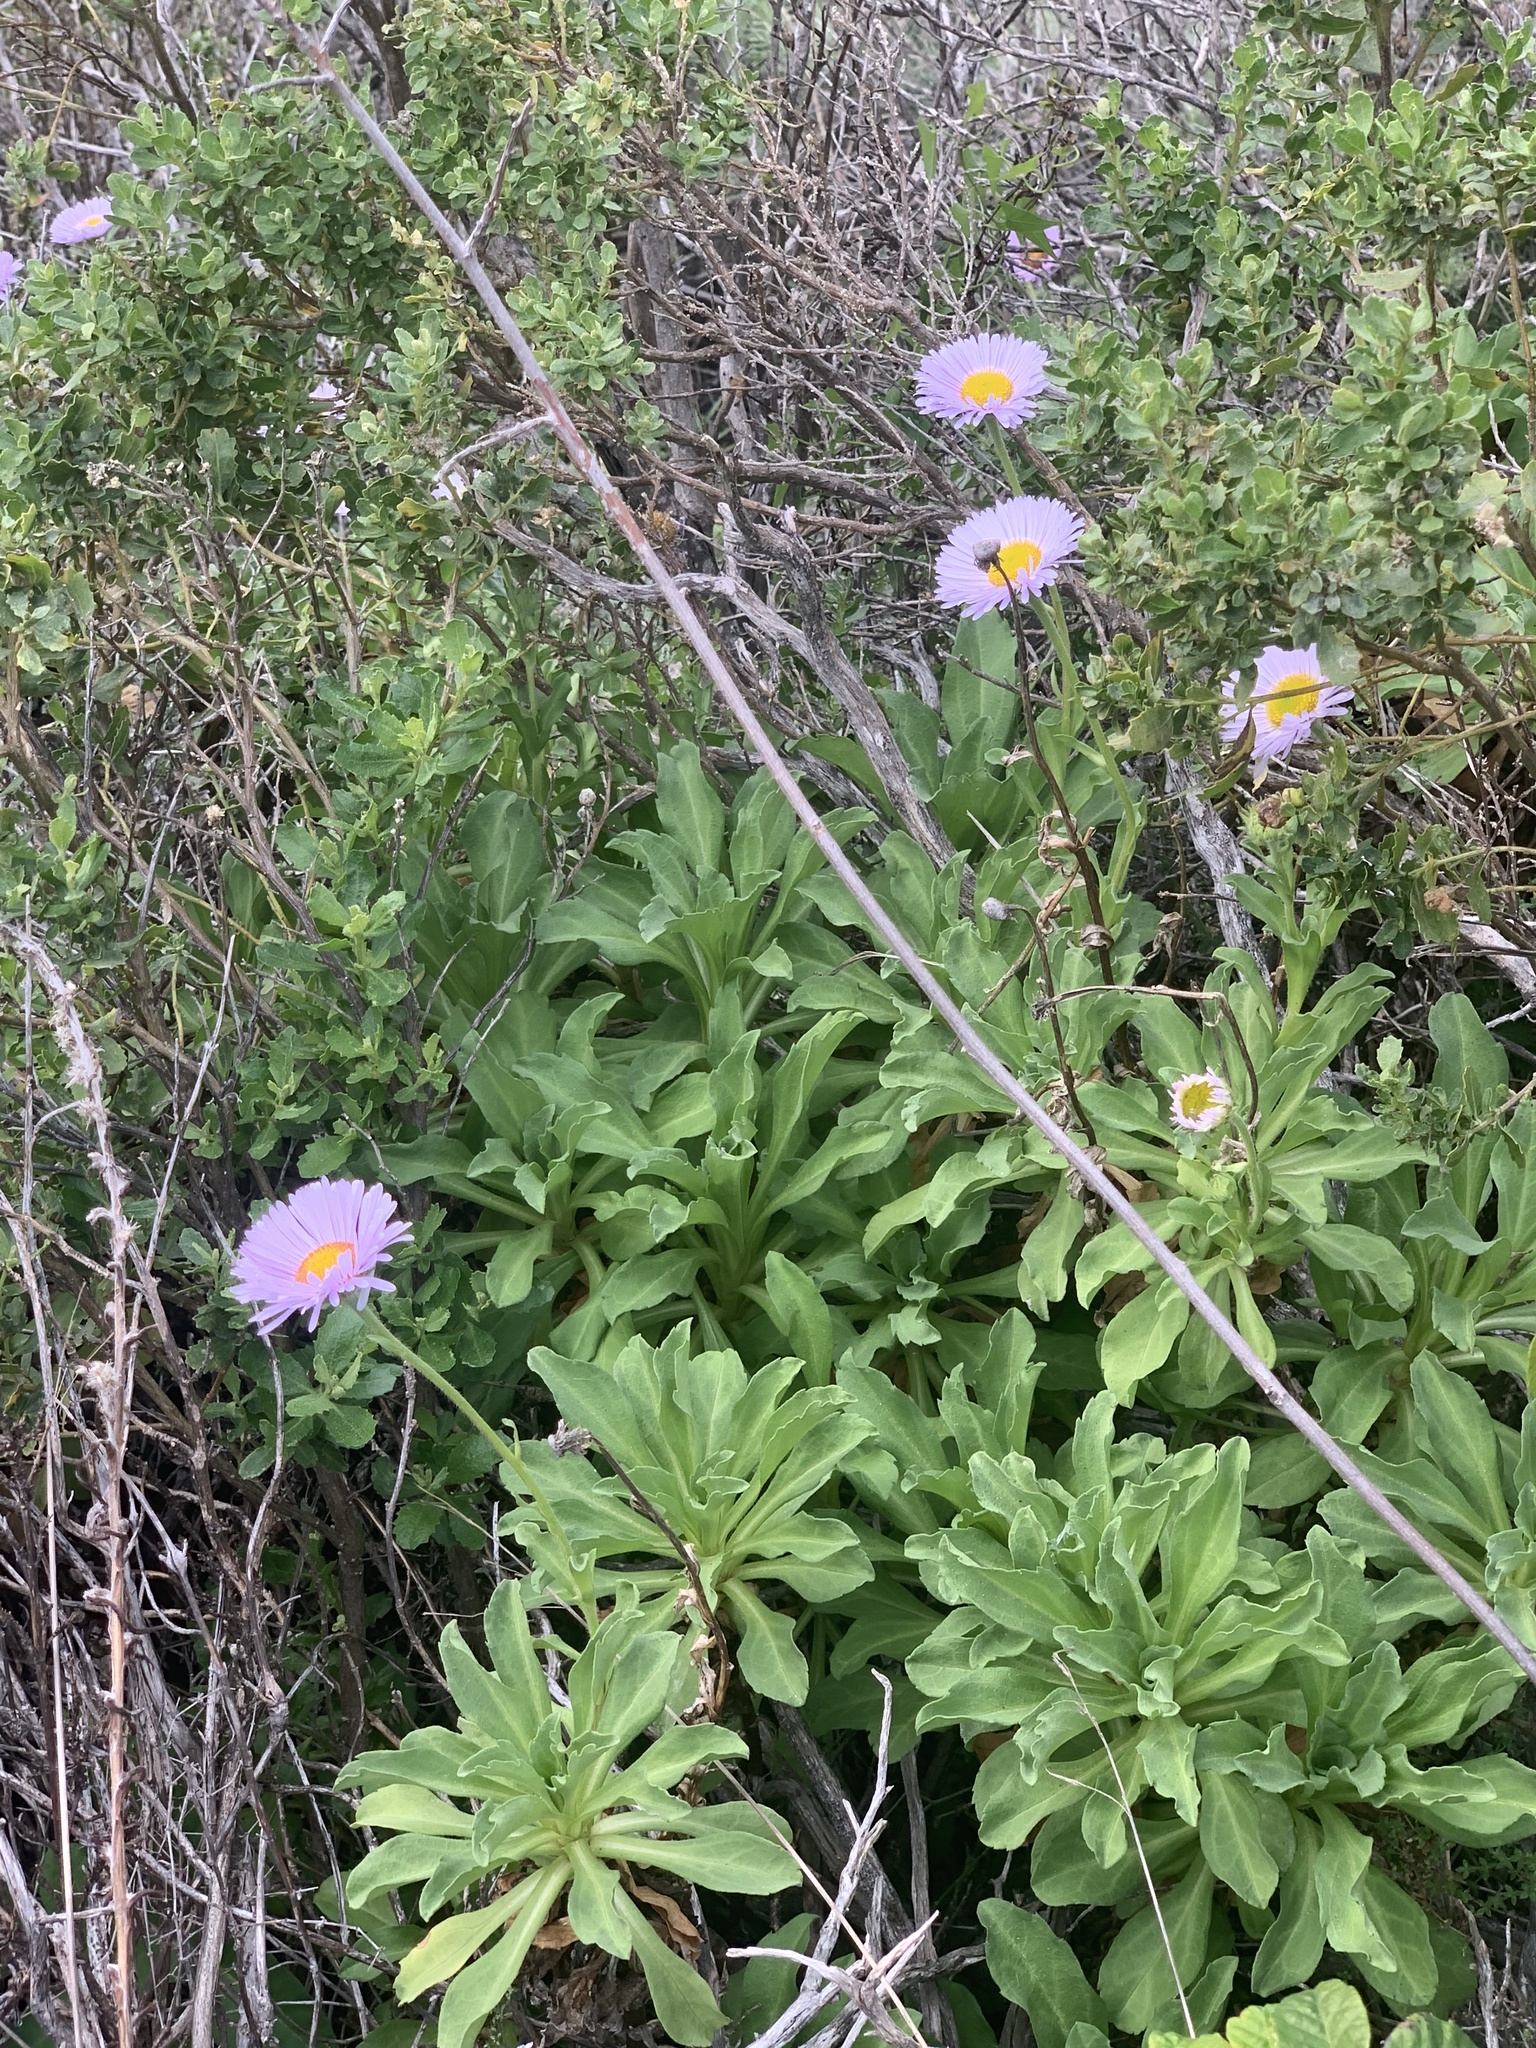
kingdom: Plantae
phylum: Tracheophyta
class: Magnoliopsida
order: Asterales
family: Asteraceae
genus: Erigeron
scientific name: Erigeron glaucus
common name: Seaside daisy
